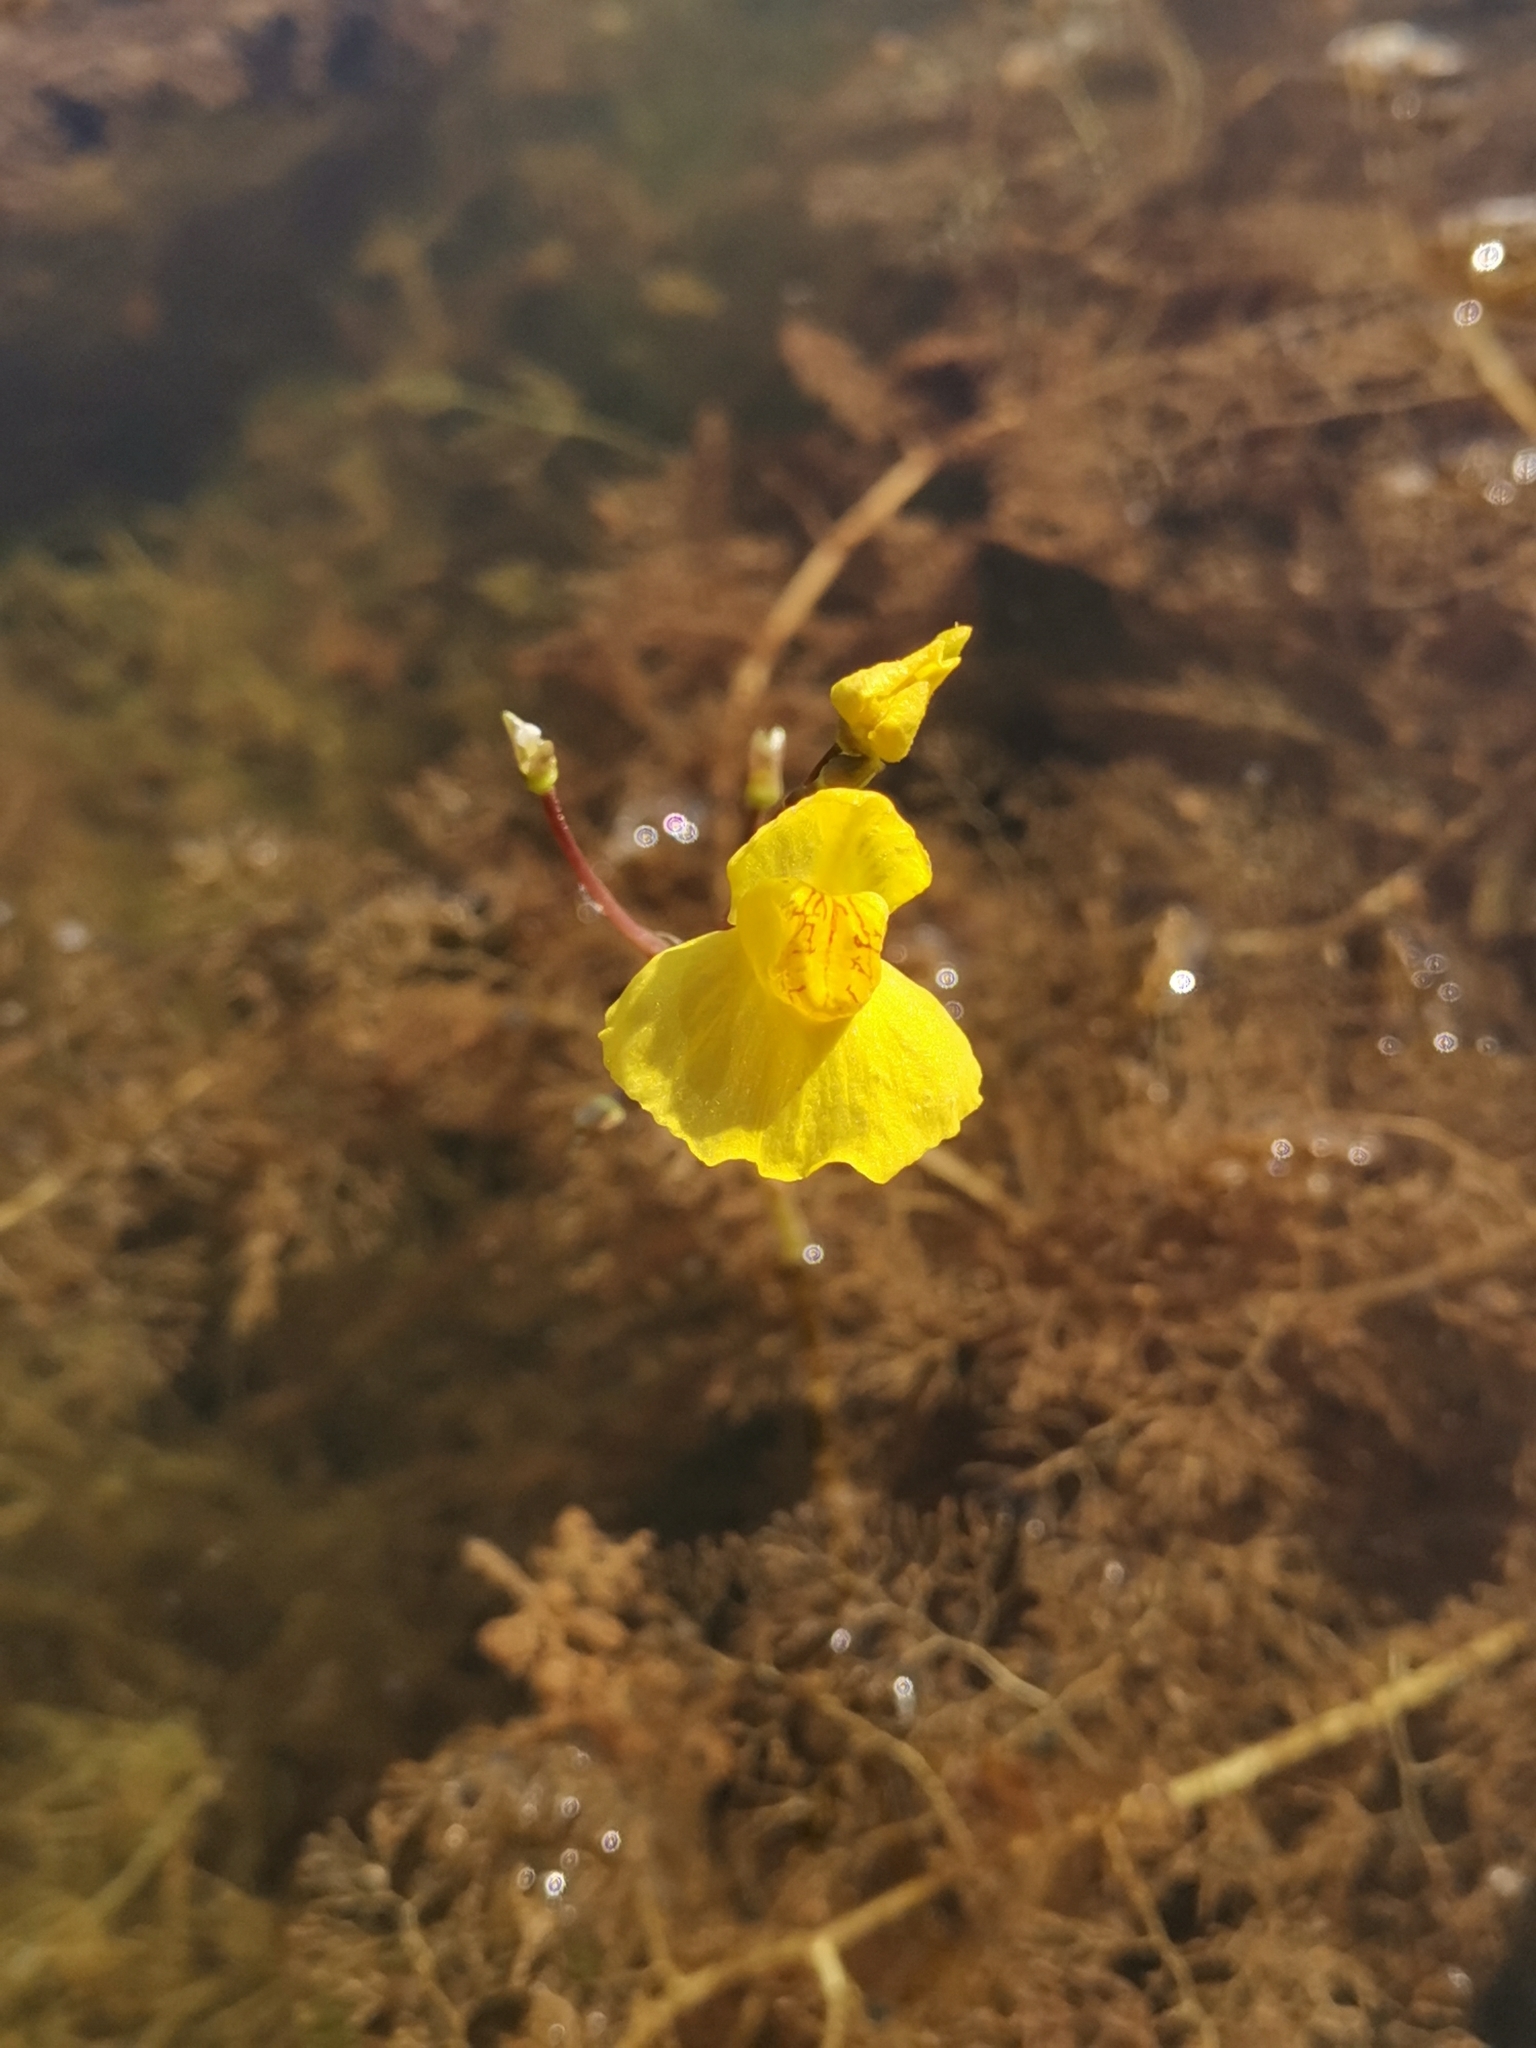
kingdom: Plantae
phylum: Tracheophyta
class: Magnoliopsida
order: Lamiales
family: Lentibulariaceae
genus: Utricularia
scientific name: Utricularia australis
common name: Bladderwort
